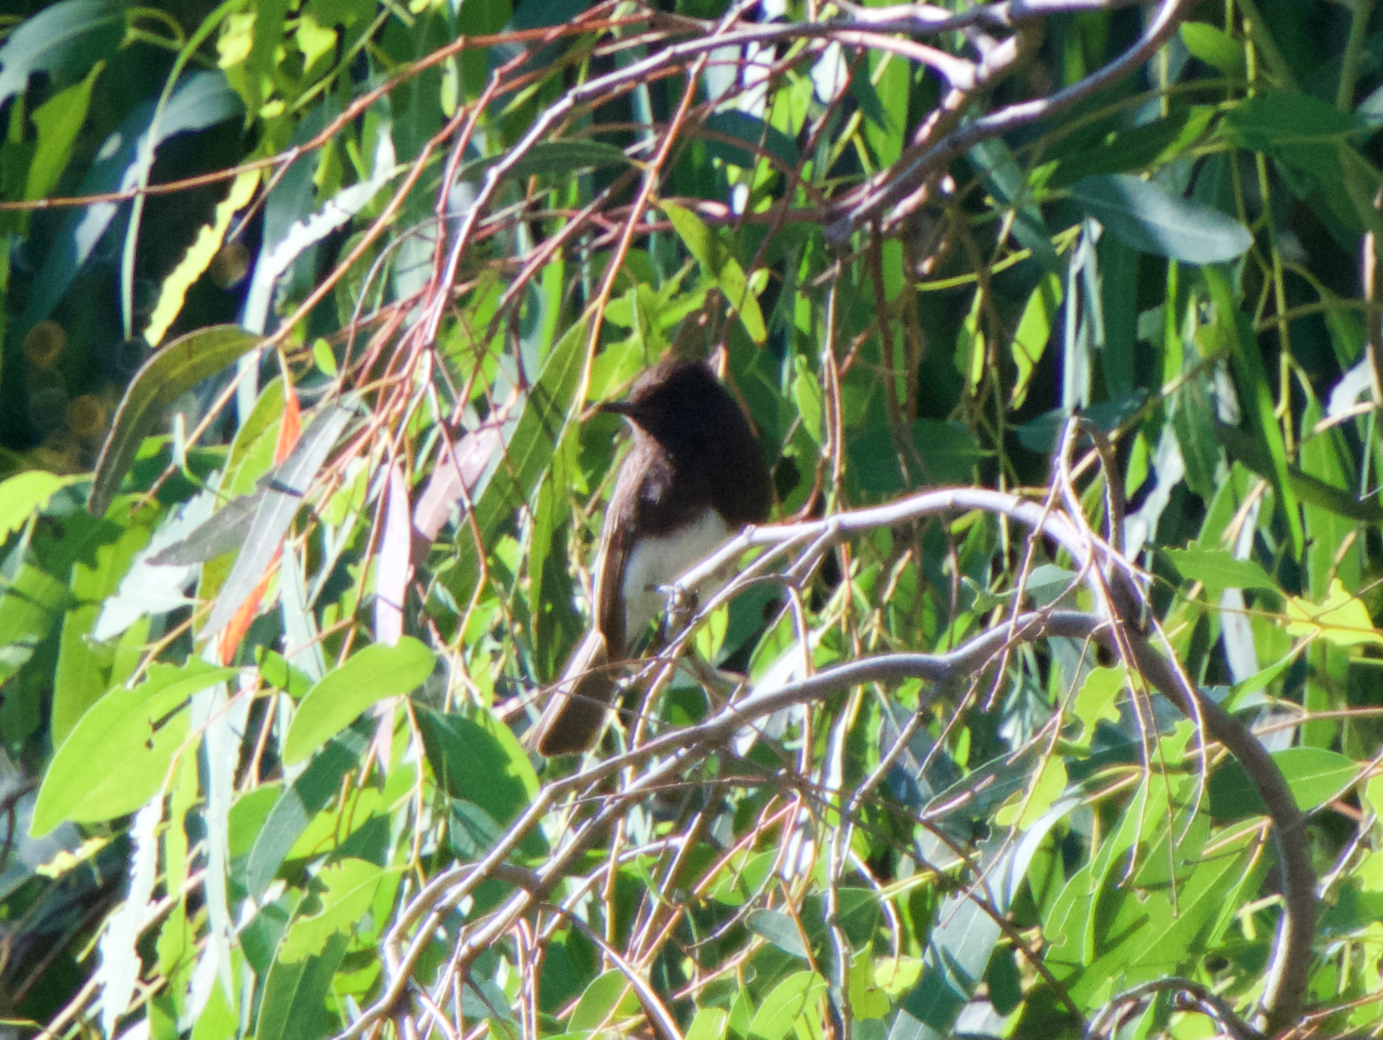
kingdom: Animalia
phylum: Chordata
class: Aves
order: Passeriformes
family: Tyrannidae
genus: Sayornis
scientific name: Sayornis nigricans
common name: Black phoebe
